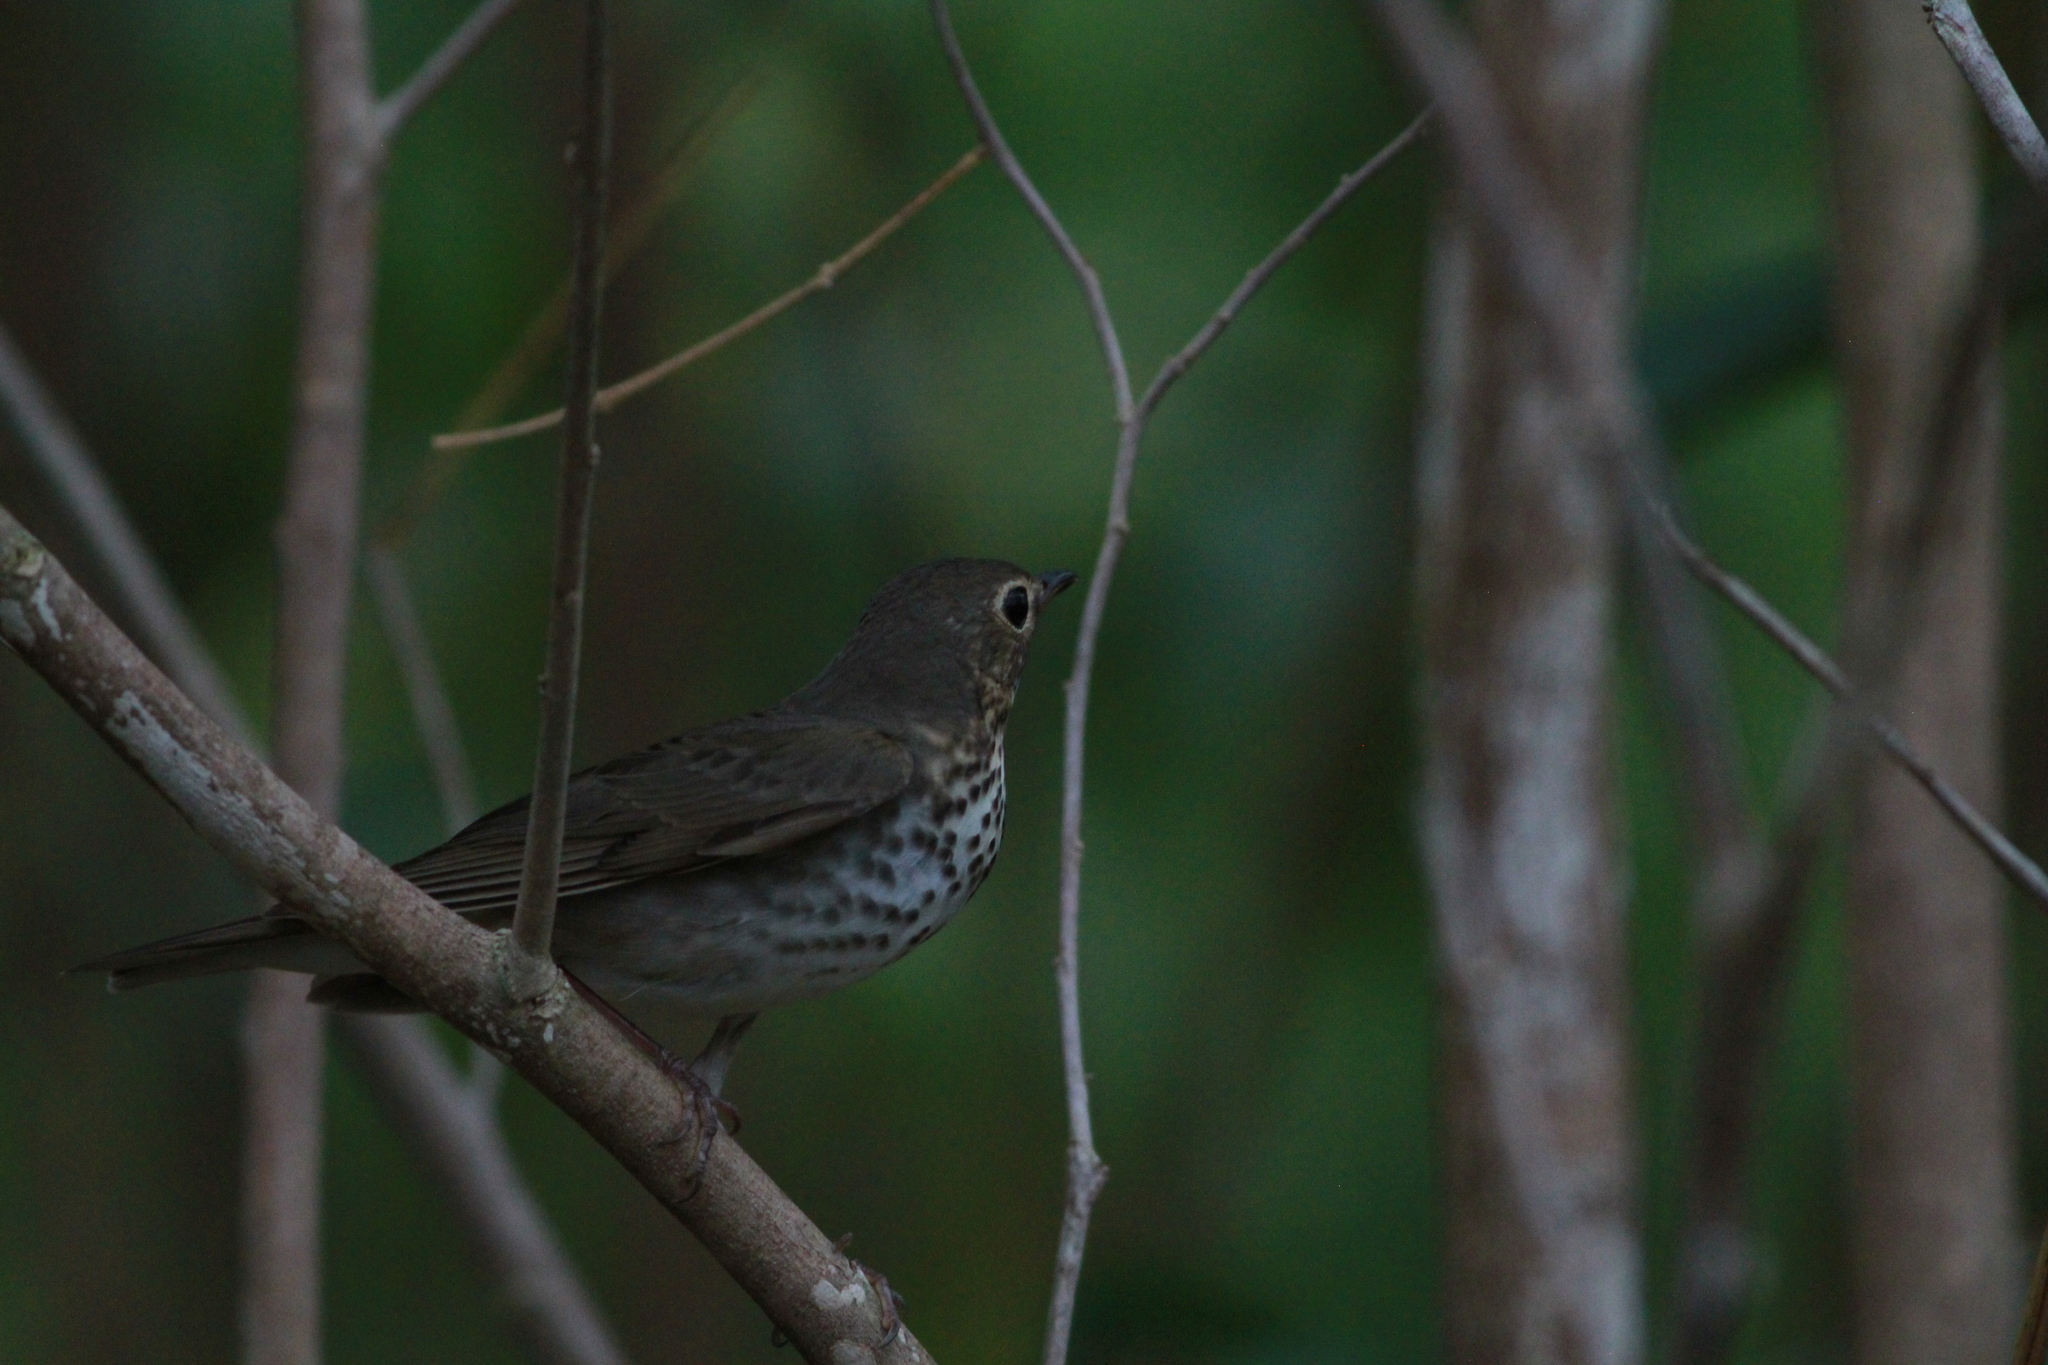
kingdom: Animalia
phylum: Chordata
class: Aves
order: Passeriformes
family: Turdidae
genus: Catharus
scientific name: Catharus ustulatus
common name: Swainson's thrush
